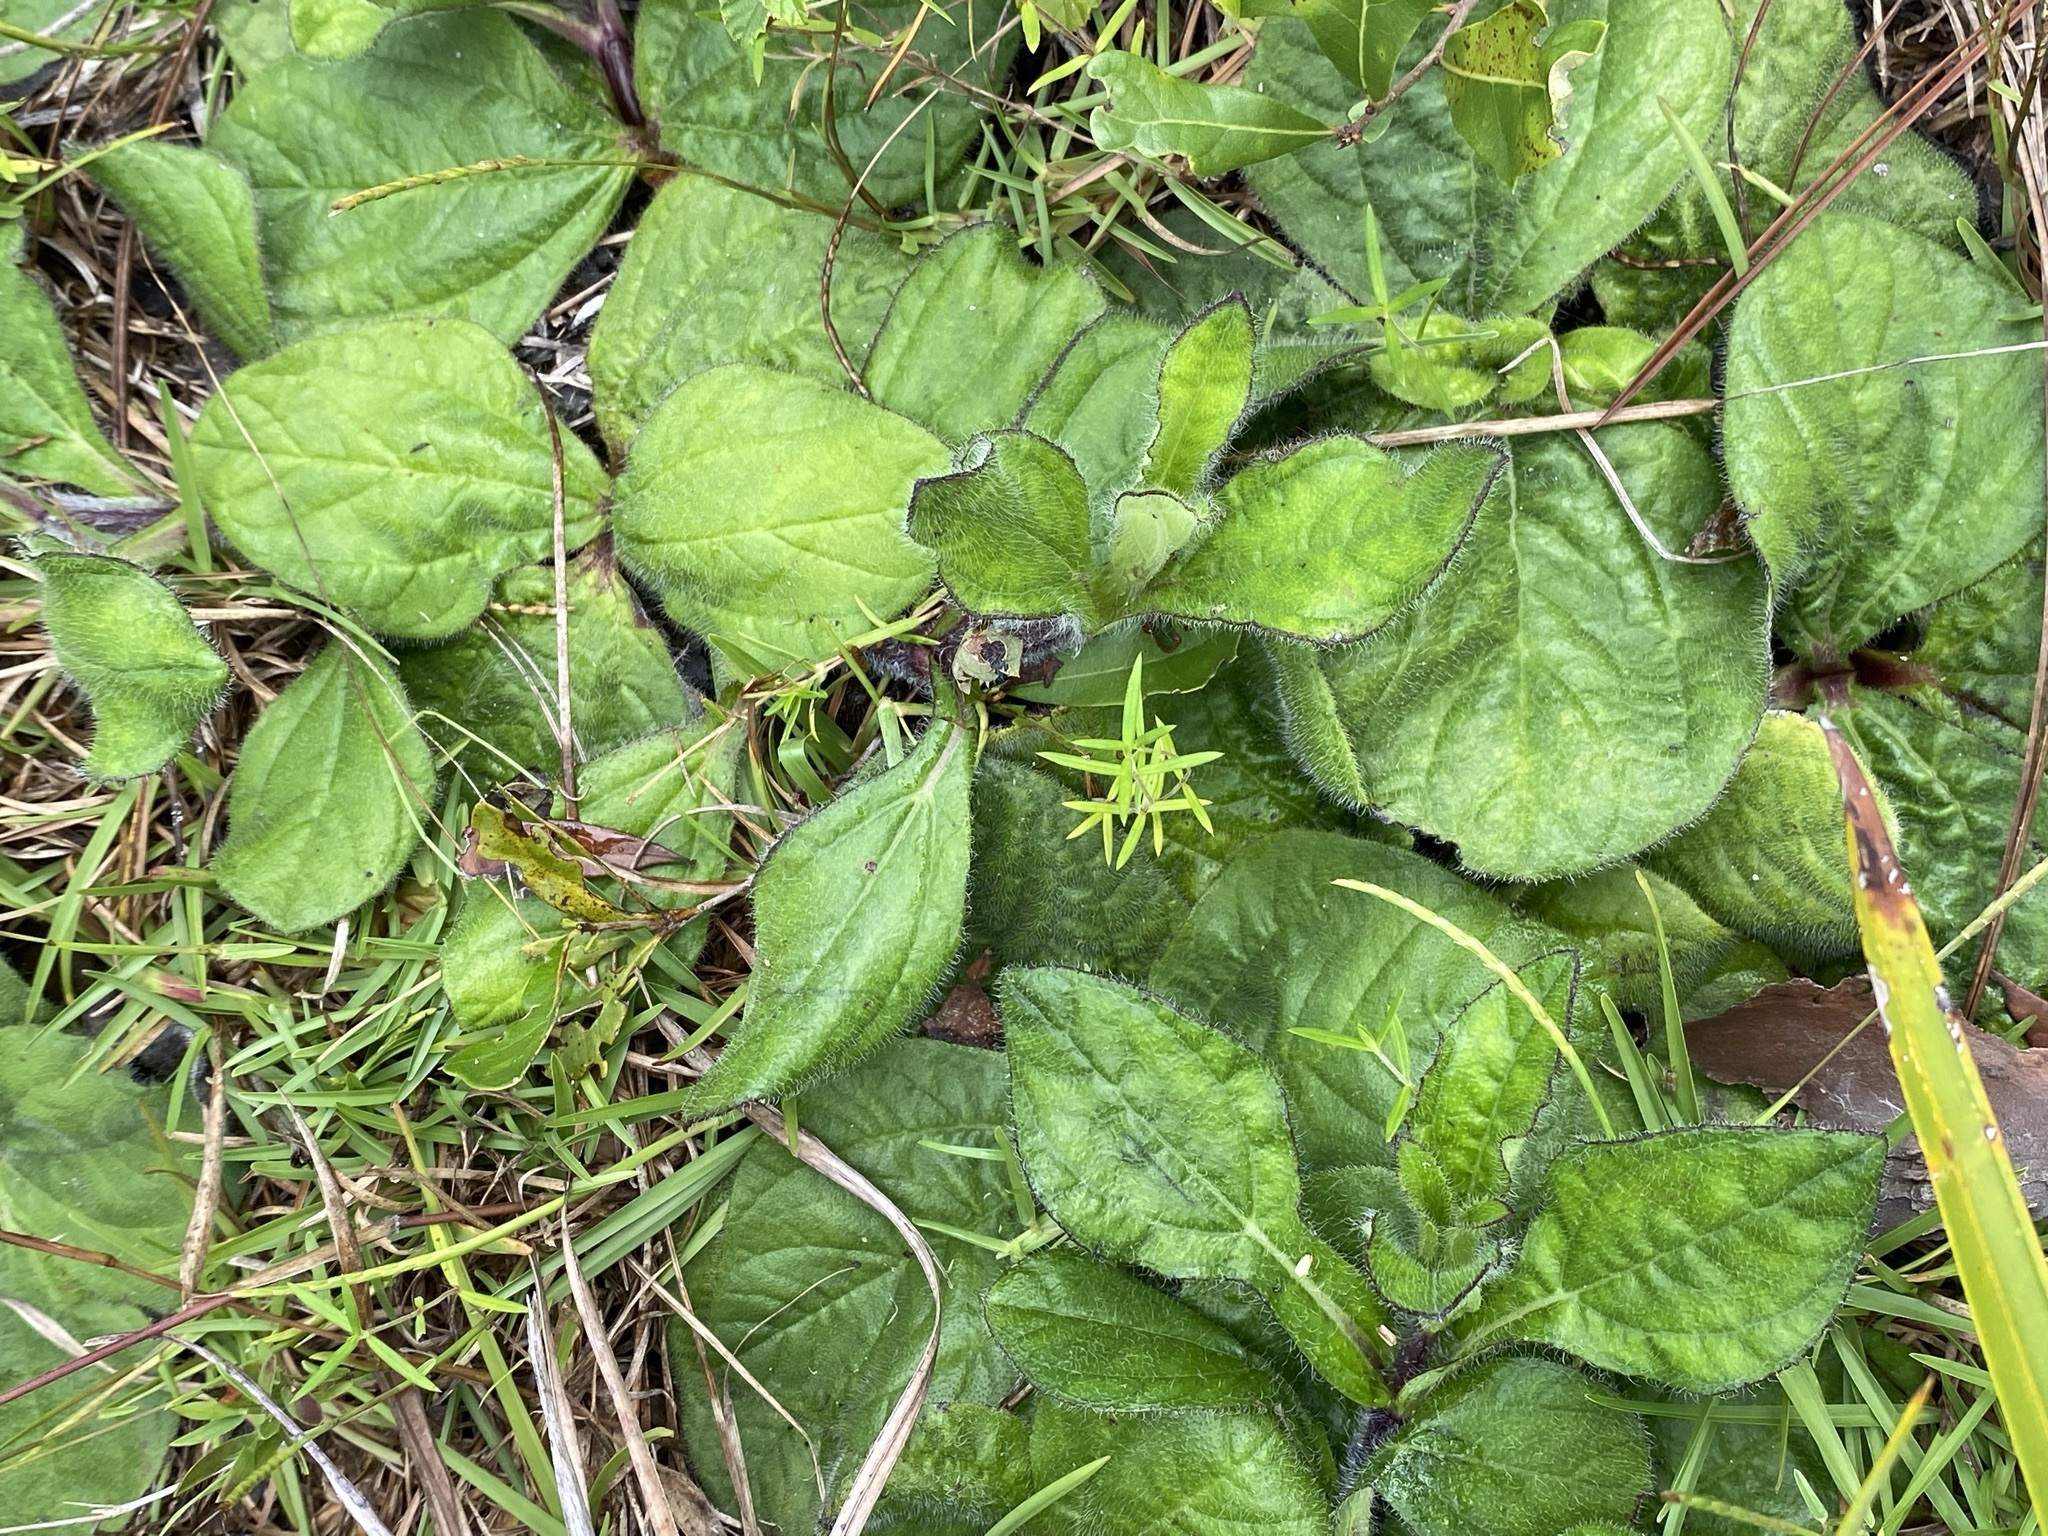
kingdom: Plantae
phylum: Tracheophyta
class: Magnoliopsida
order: Asterales
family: Asteraceae
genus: Helianthus
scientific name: Helianthus radula
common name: Pineland sunflower
